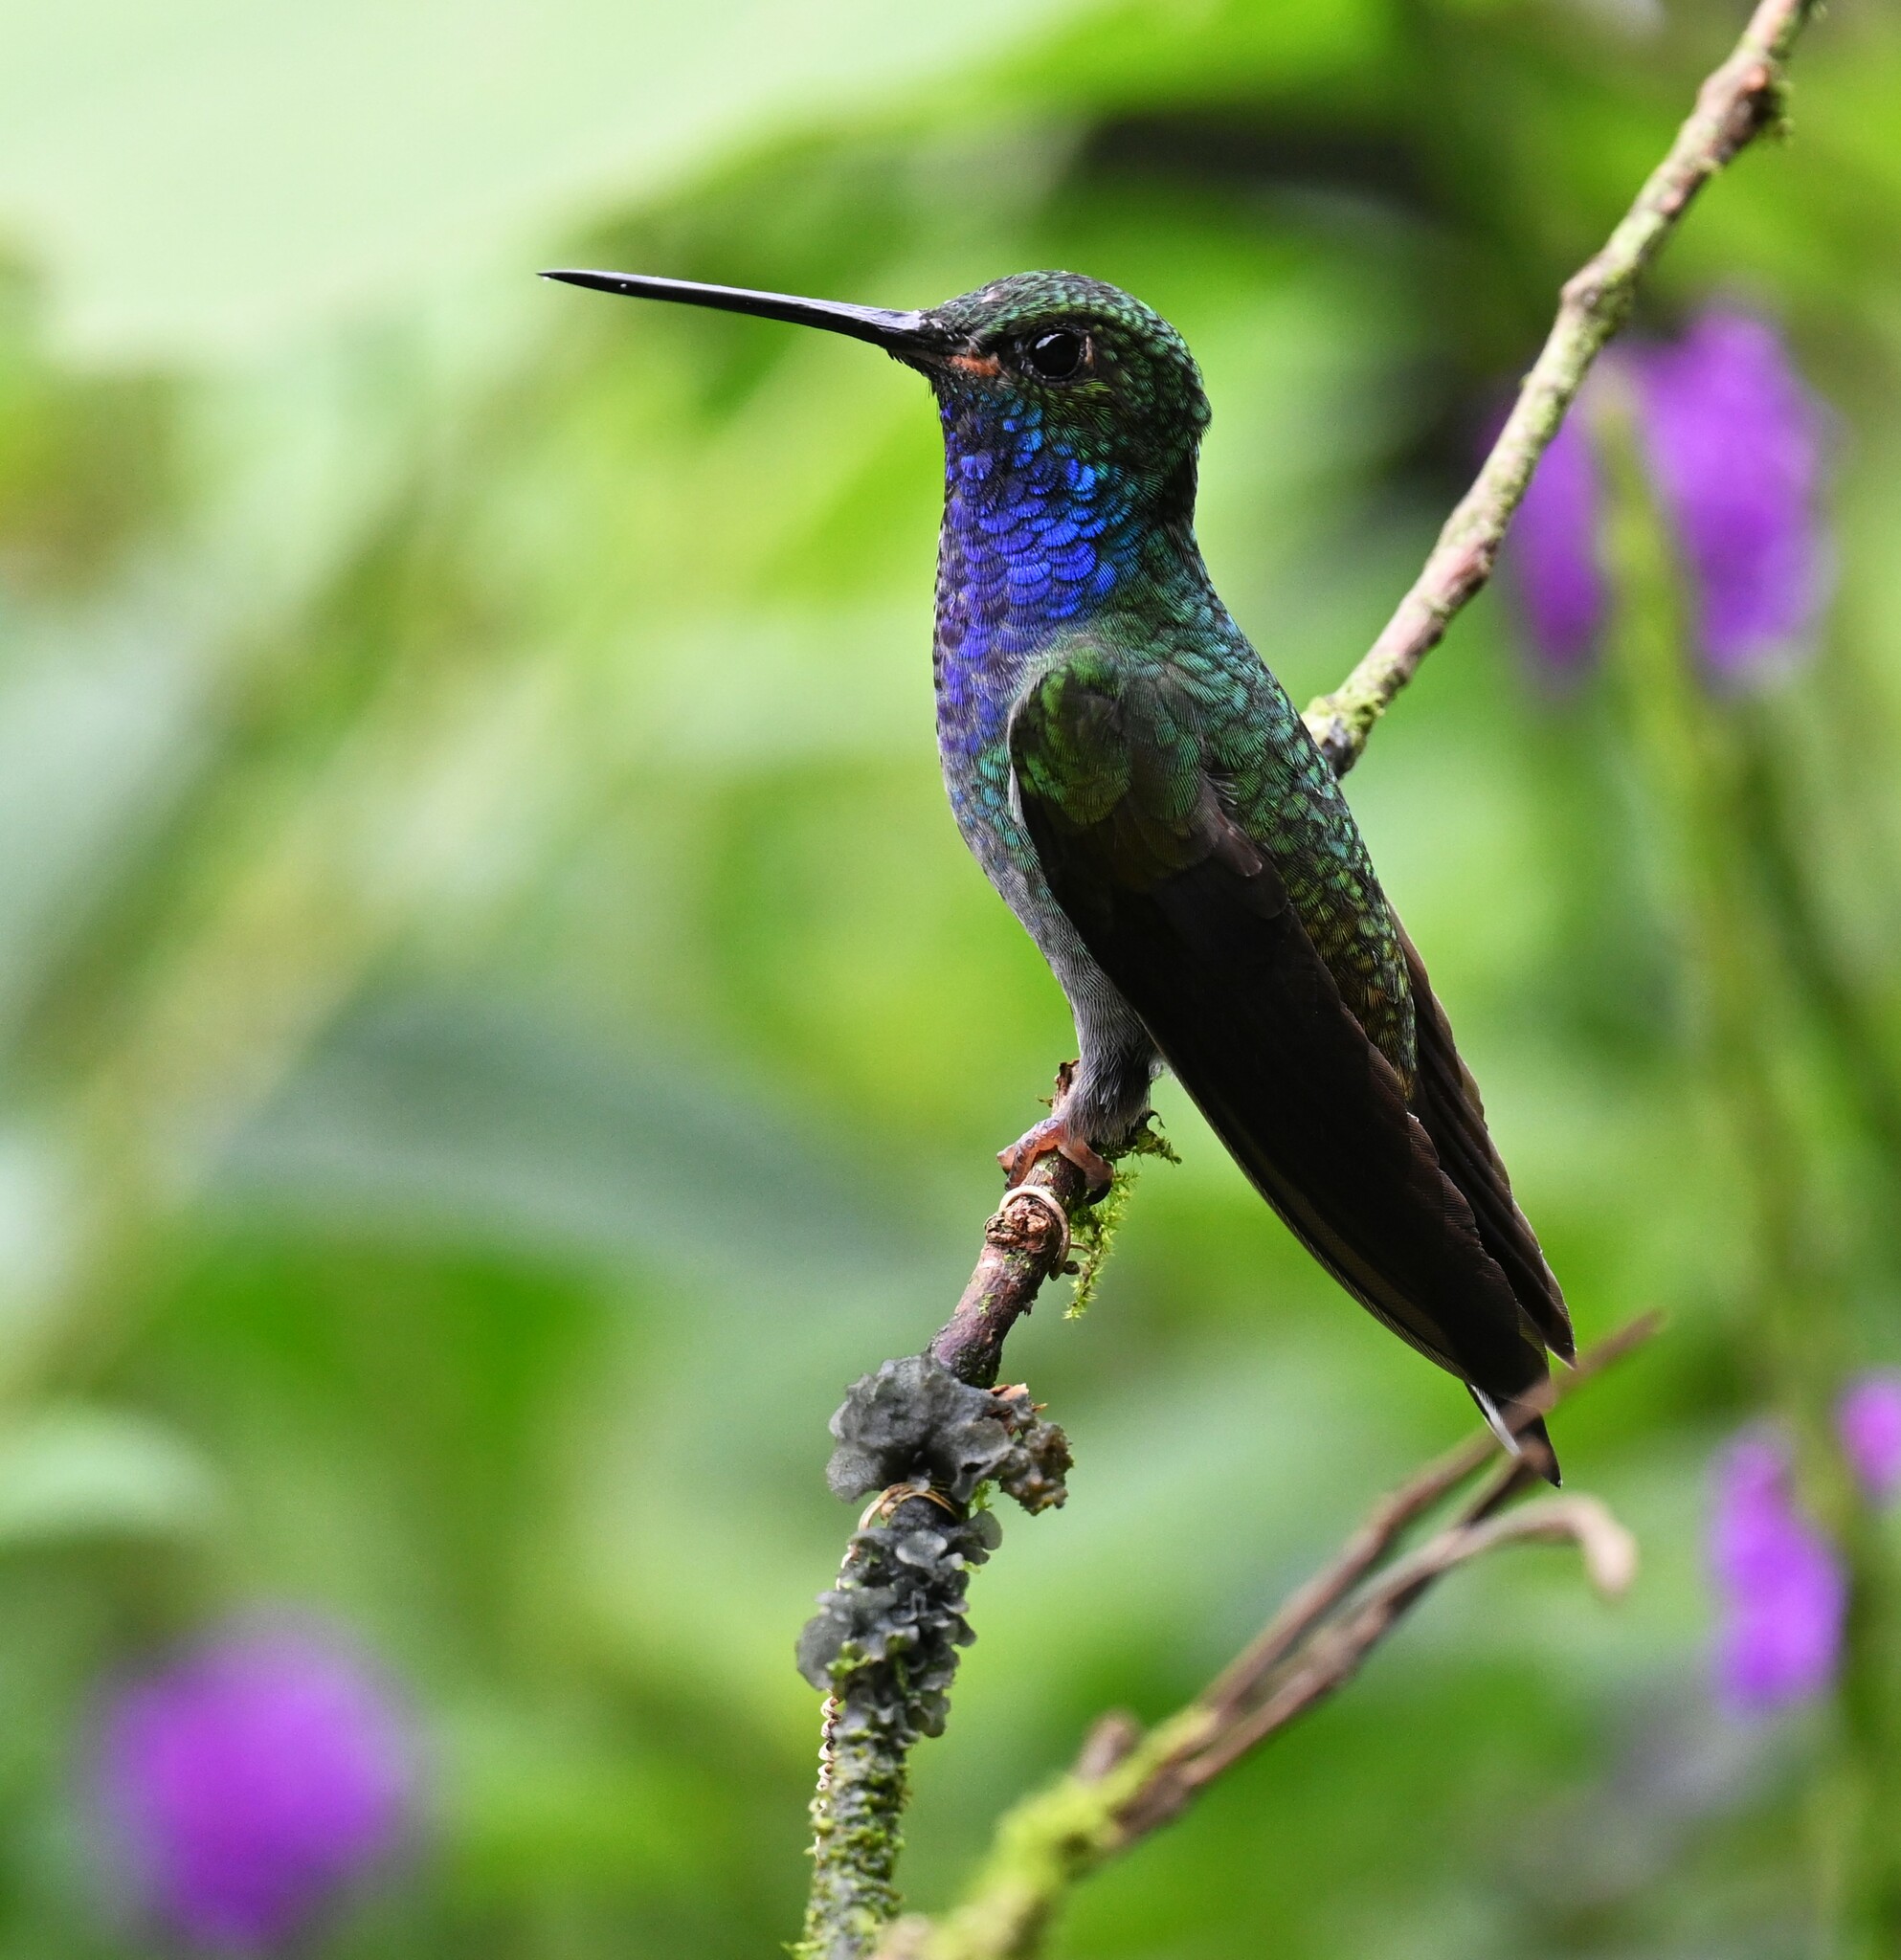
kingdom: Animalia
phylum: Chordata
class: Aves
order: Apodiformes
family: Trochilidae
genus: Urochroa
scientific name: Urochroa leucura
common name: Green-backed hillstar
